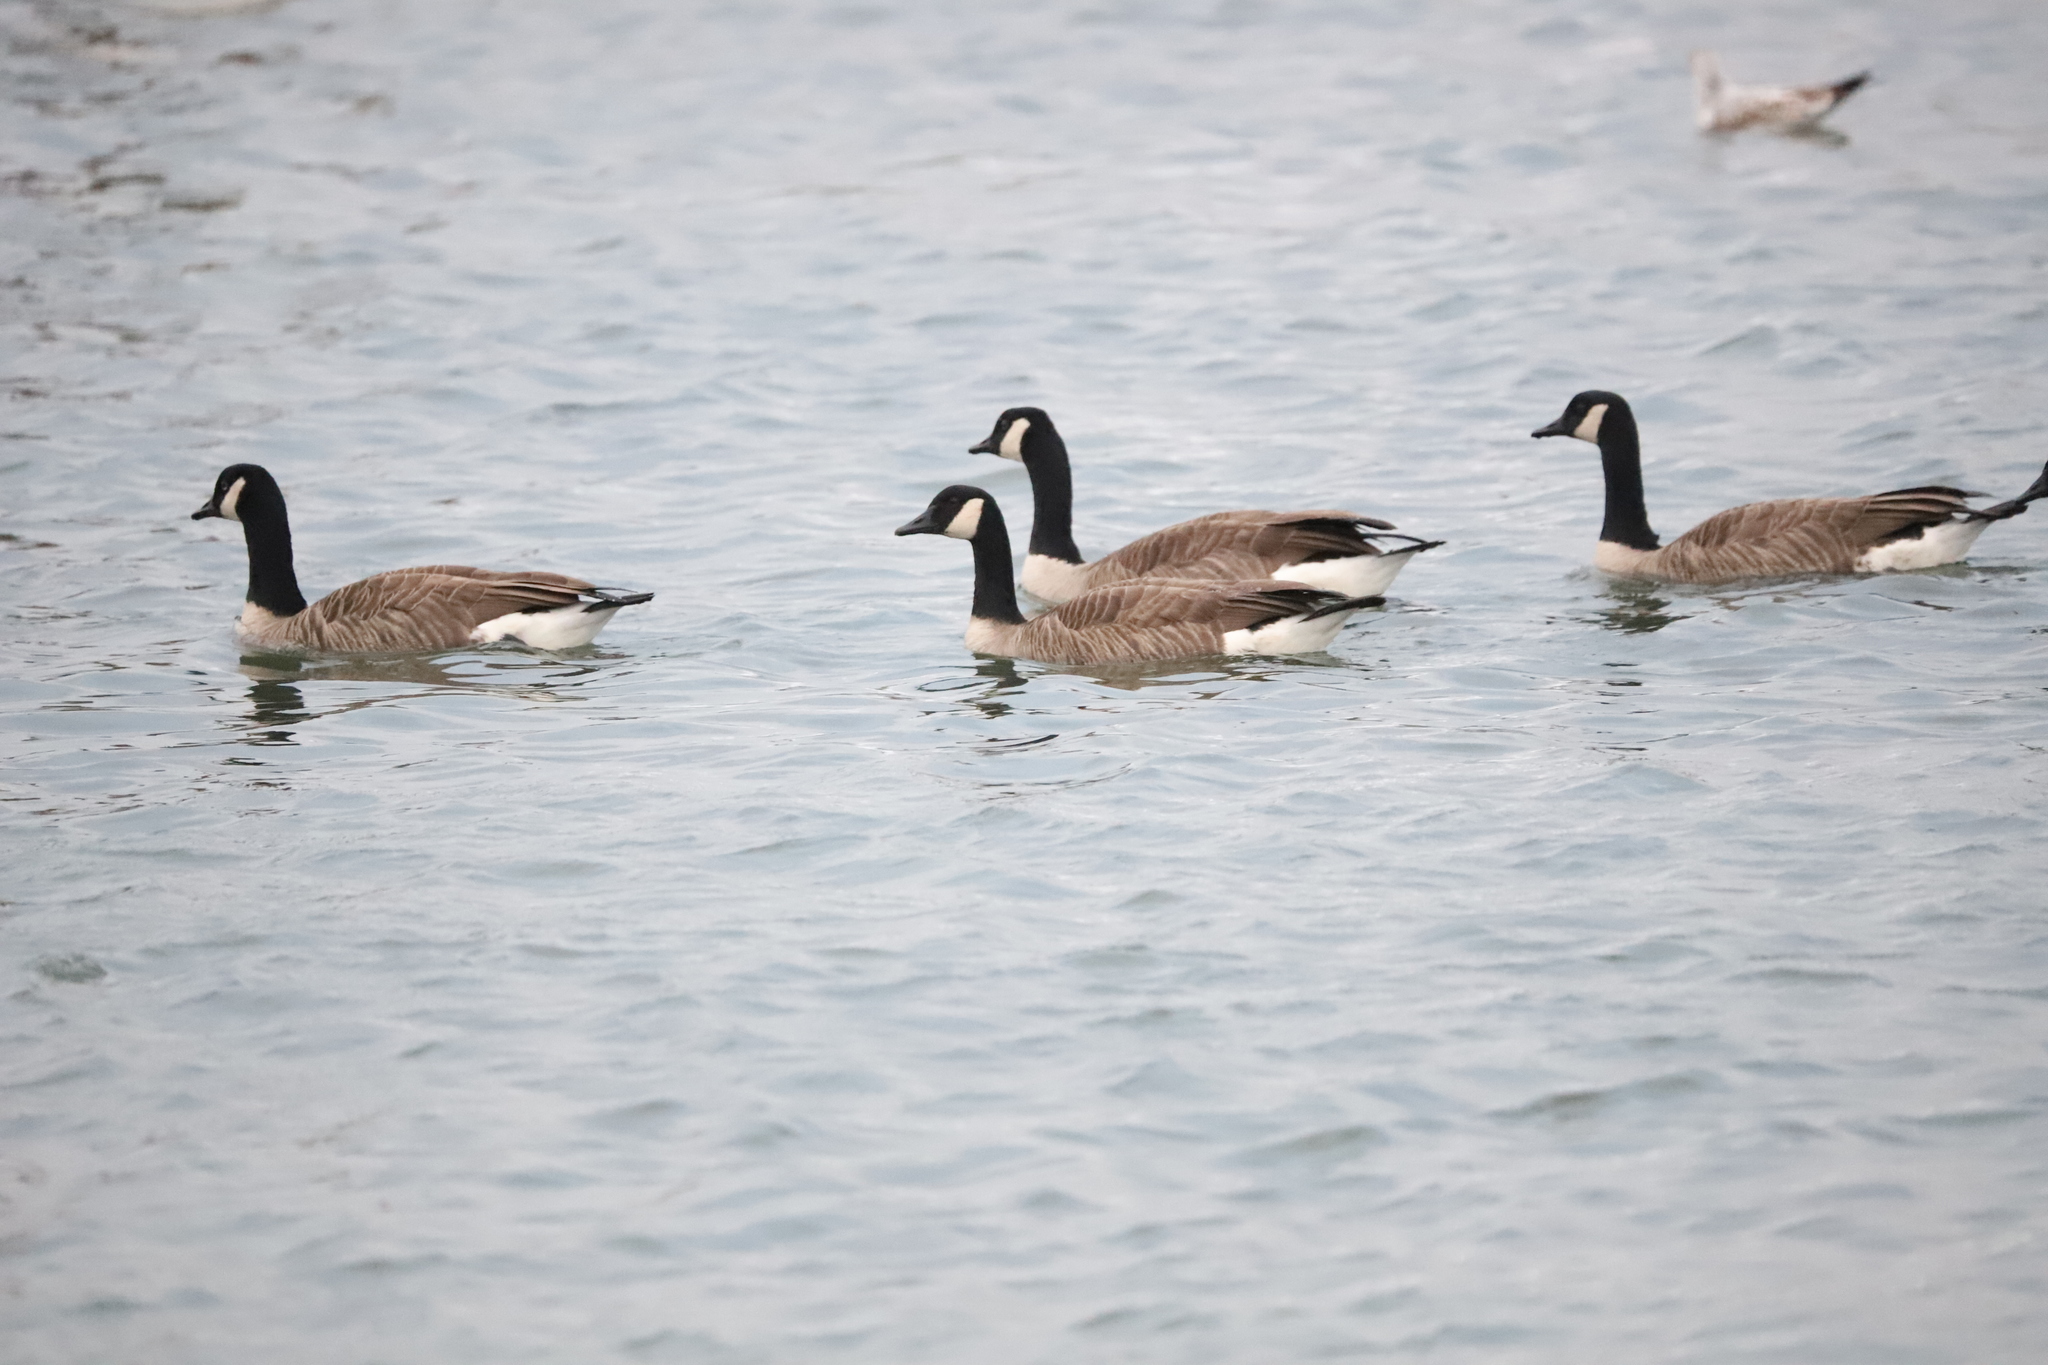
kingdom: Animalia
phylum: Chordata
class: Aves
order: Anseriformes
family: Anatidae
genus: Branta
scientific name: Branta canadensis
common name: Canada goose
